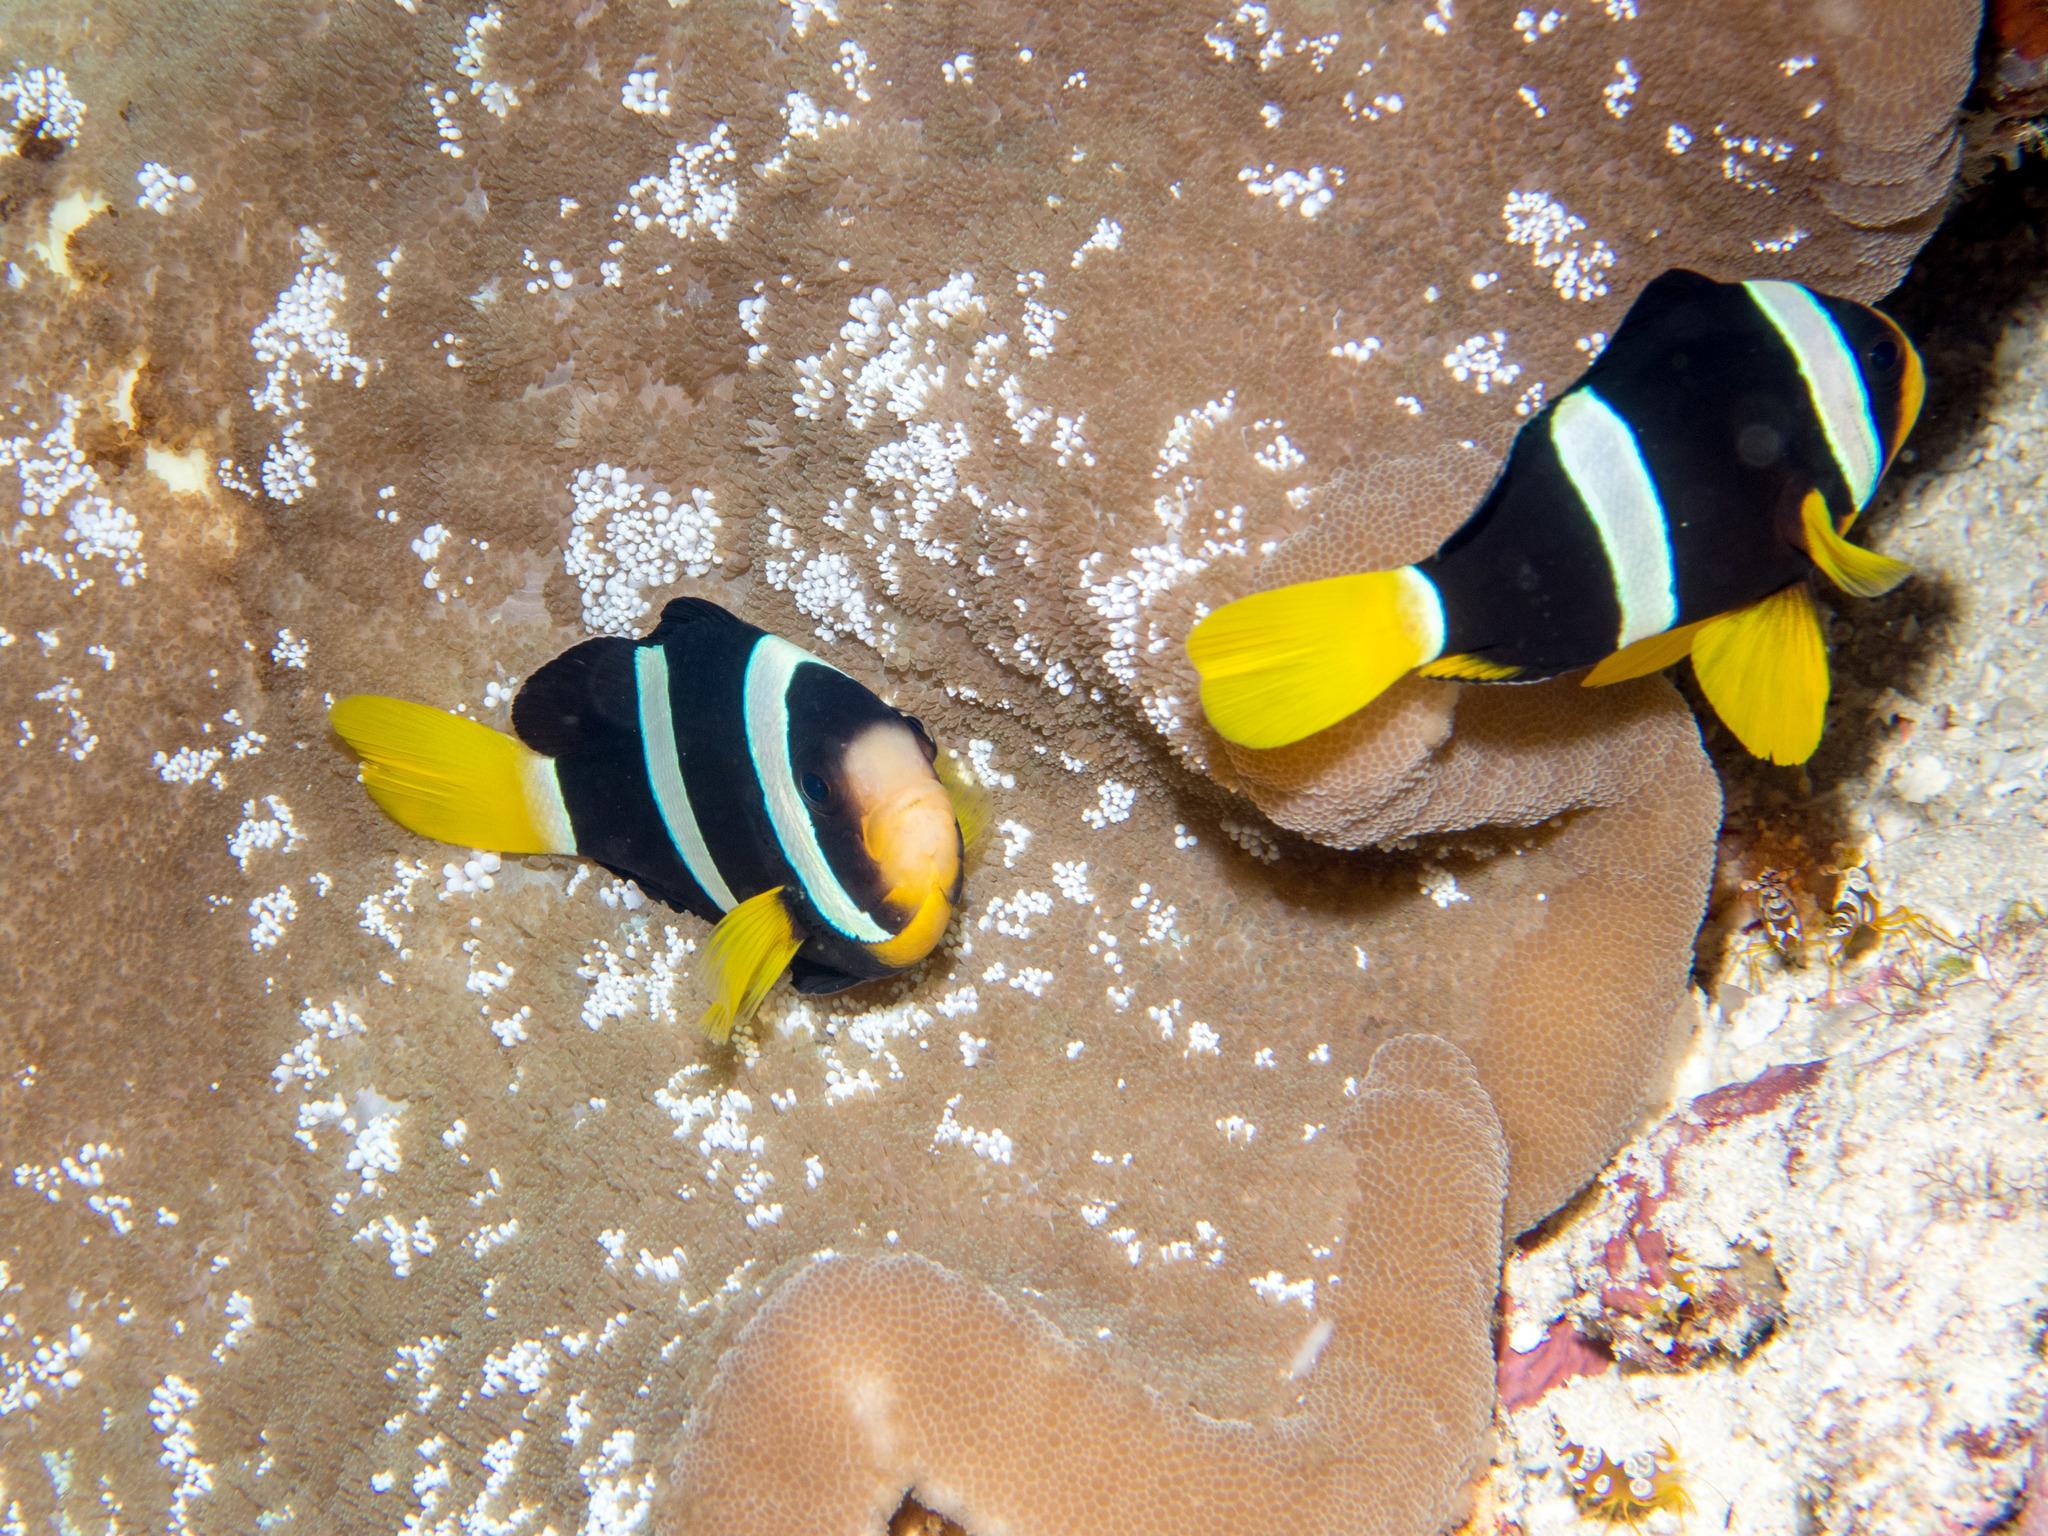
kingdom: Animalia
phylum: Chordata
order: Perciformes
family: Pomacentridae
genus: Amphiprion
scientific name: Amphiprion clarkii
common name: Clark's anemonefish
